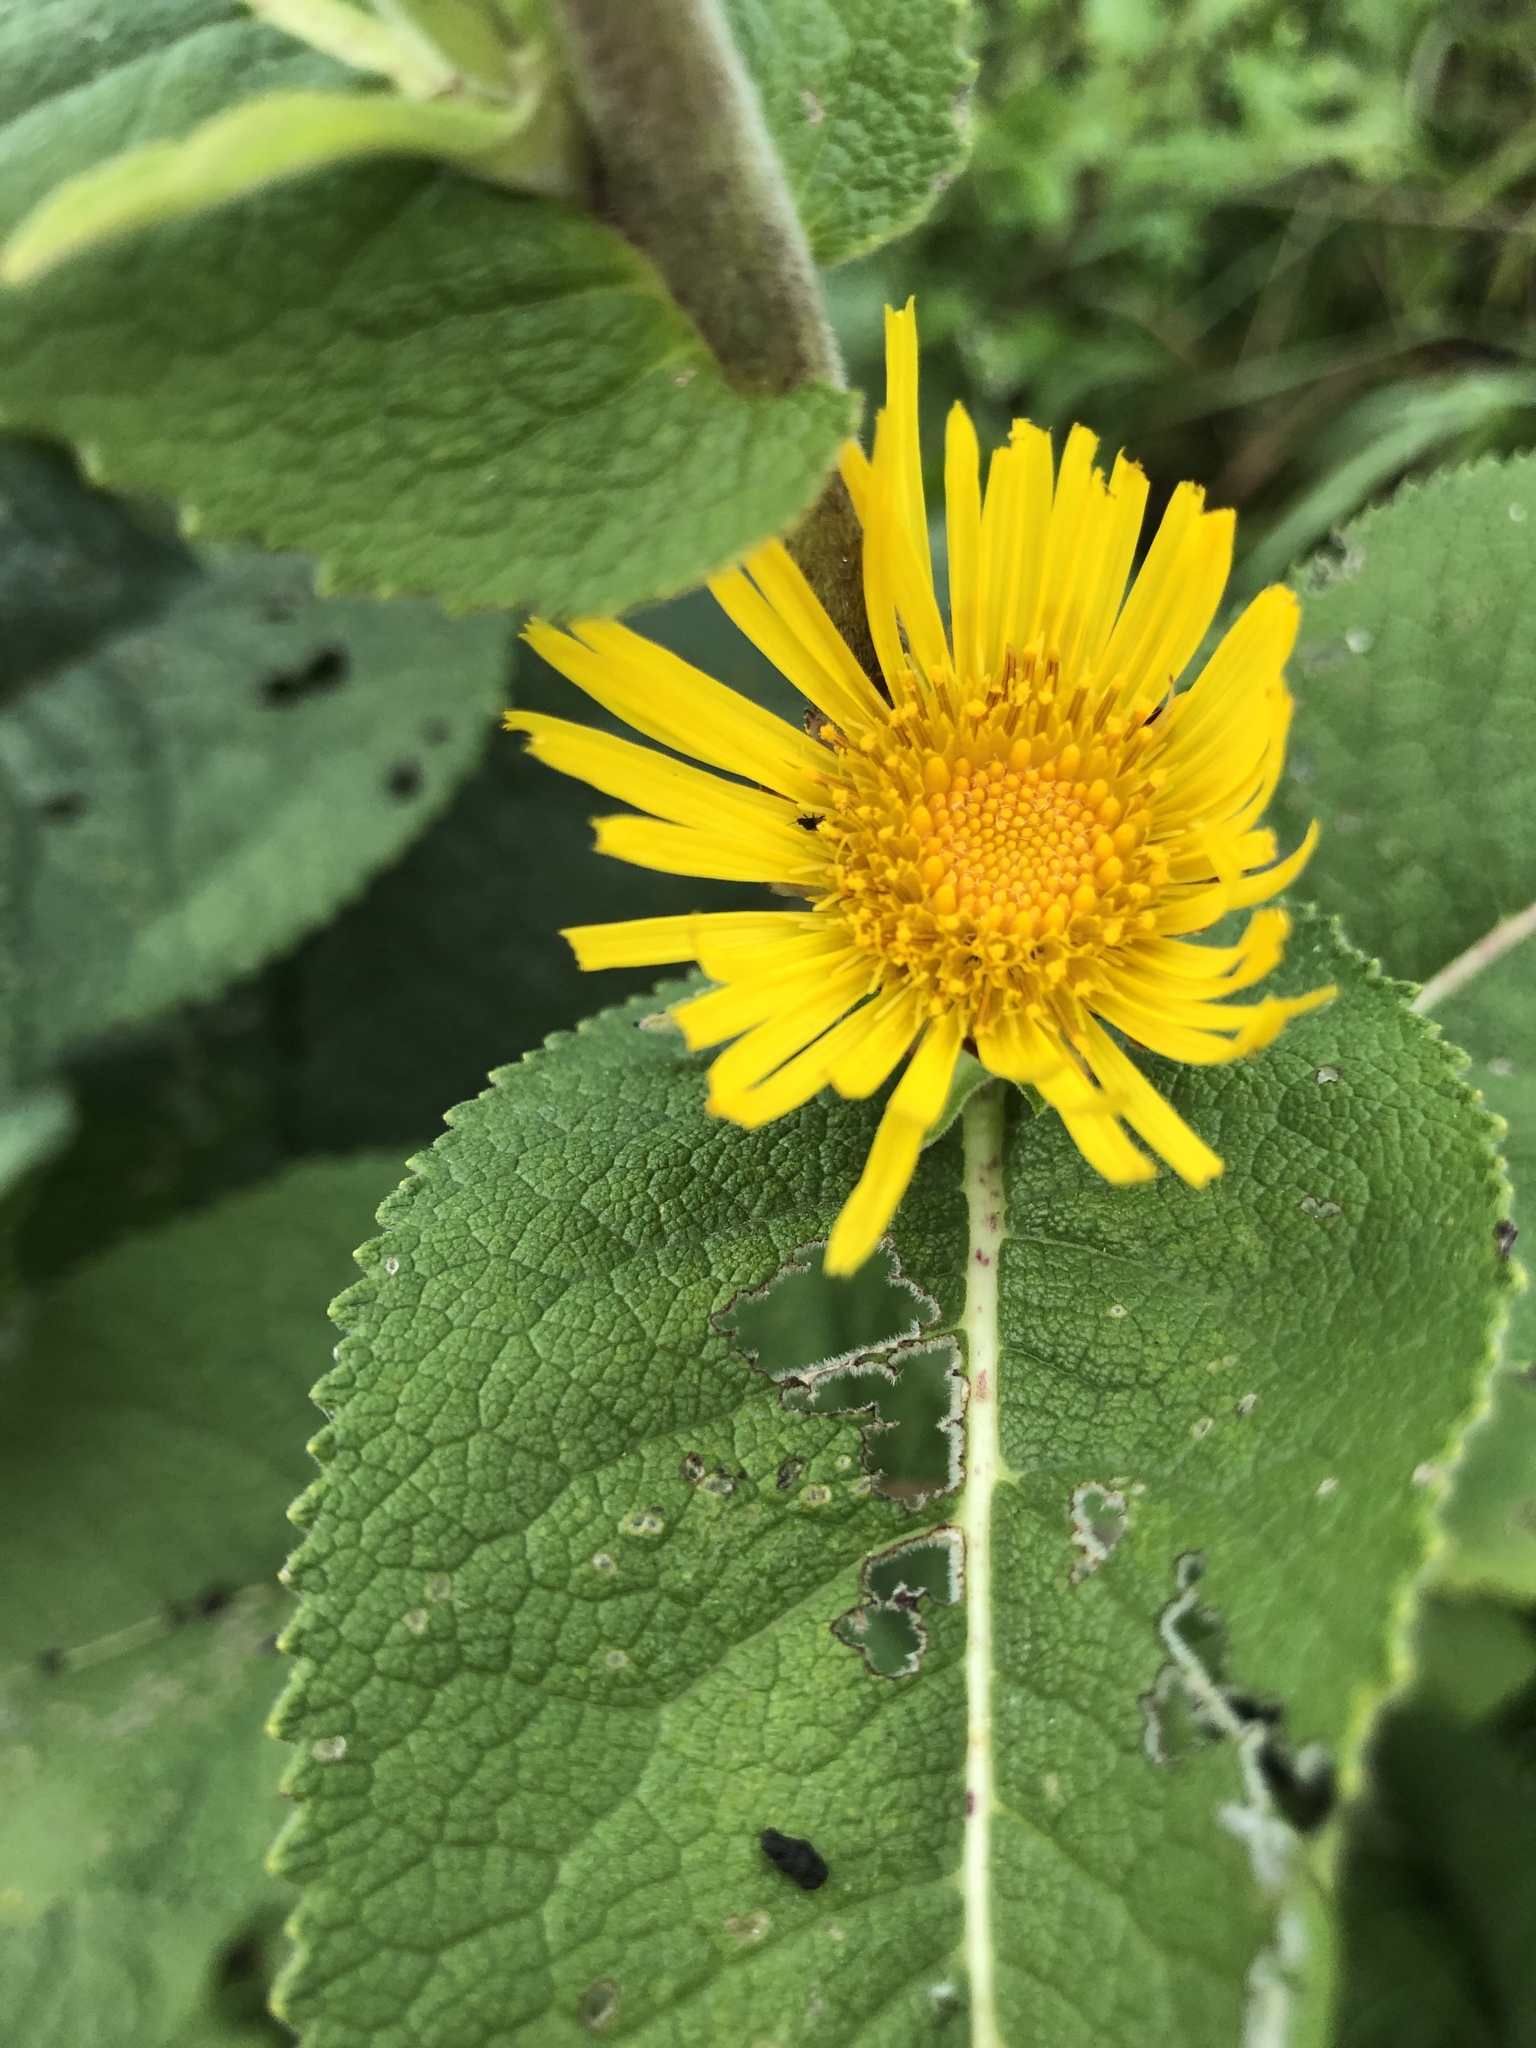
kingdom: Plantae
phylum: Tracheophyta
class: Magnoliopsida
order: Asterales
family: Asteraceae
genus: Inula
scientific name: Inula helenium
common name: Elecampane
